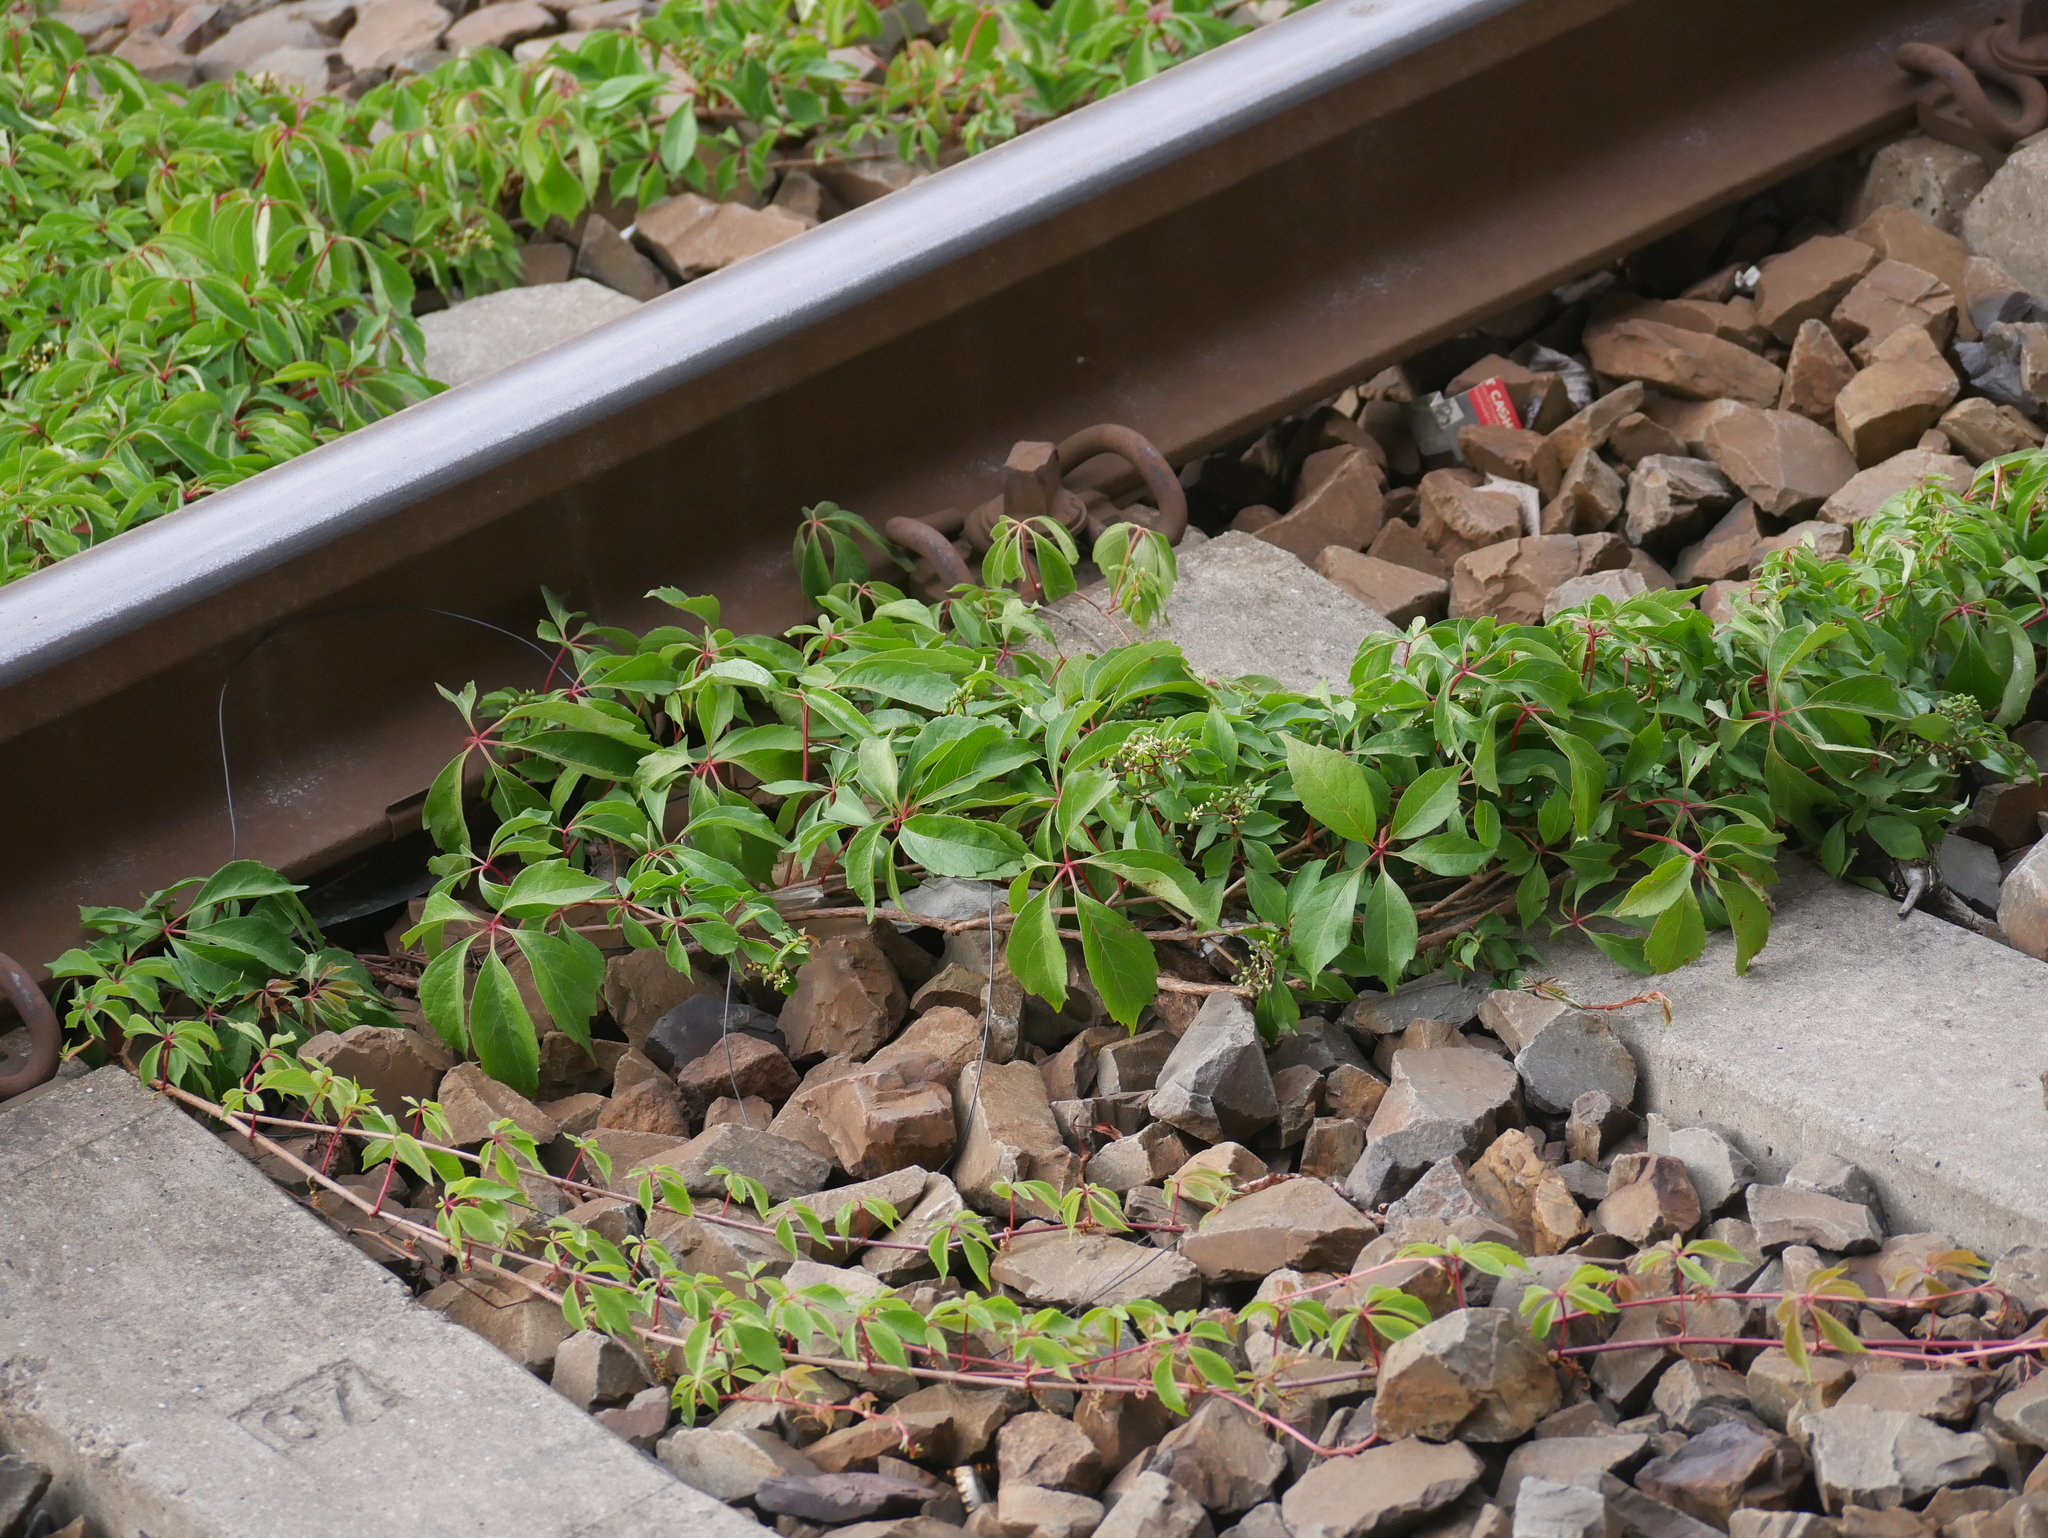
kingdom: Plantae
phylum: Tracheophyta
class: Magnoliopsida
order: Vitales
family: Vitaceae
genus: Parthenocissus
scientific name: Parthenocissus quinquefolia
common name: Virginia-creeper
